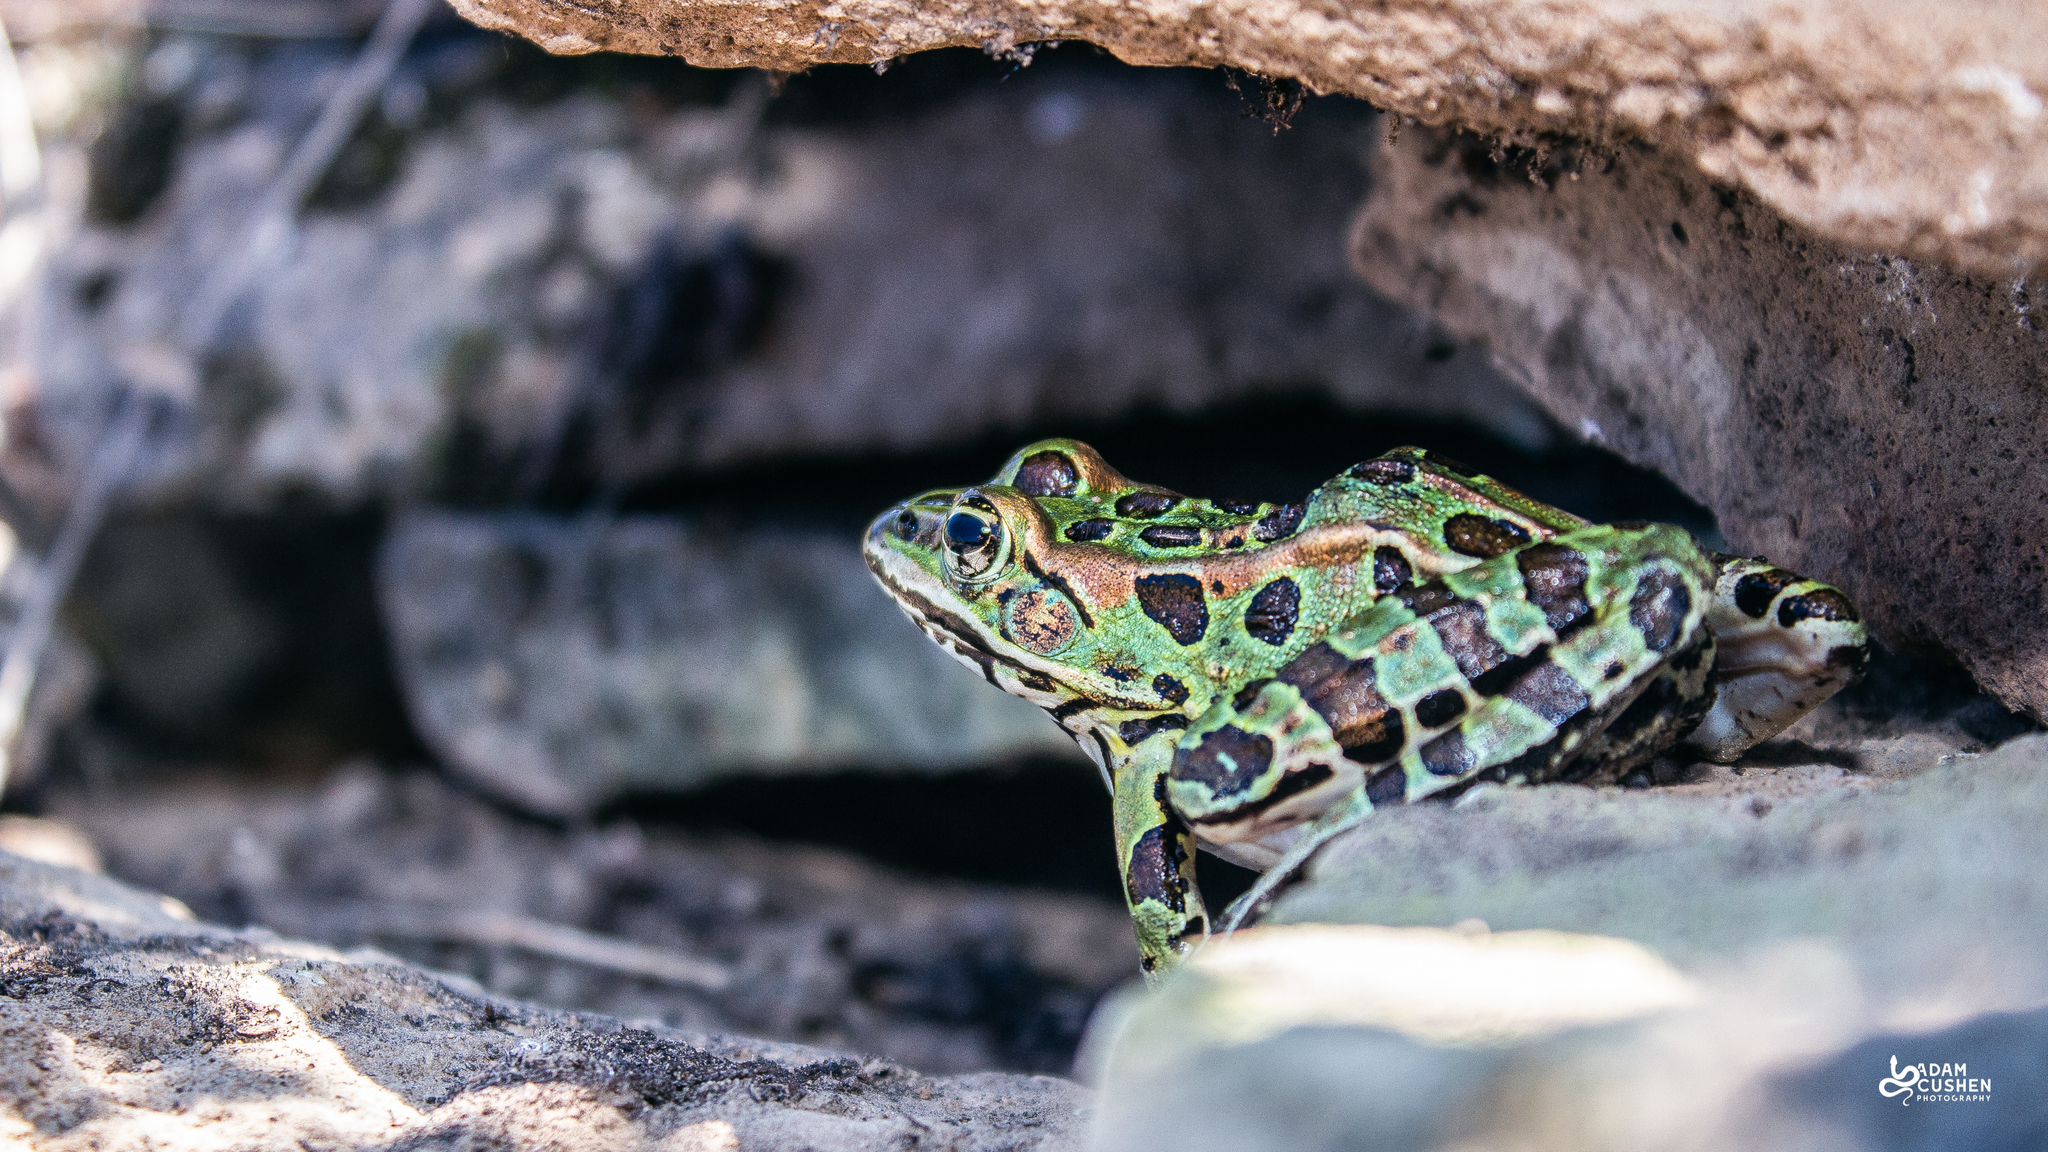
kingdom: Animalia
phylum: Chordata
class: Amphibia
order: Anura
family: Ranidae
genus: Lithobates
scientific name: Lithobates pipiens
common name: Northern leopard frog
